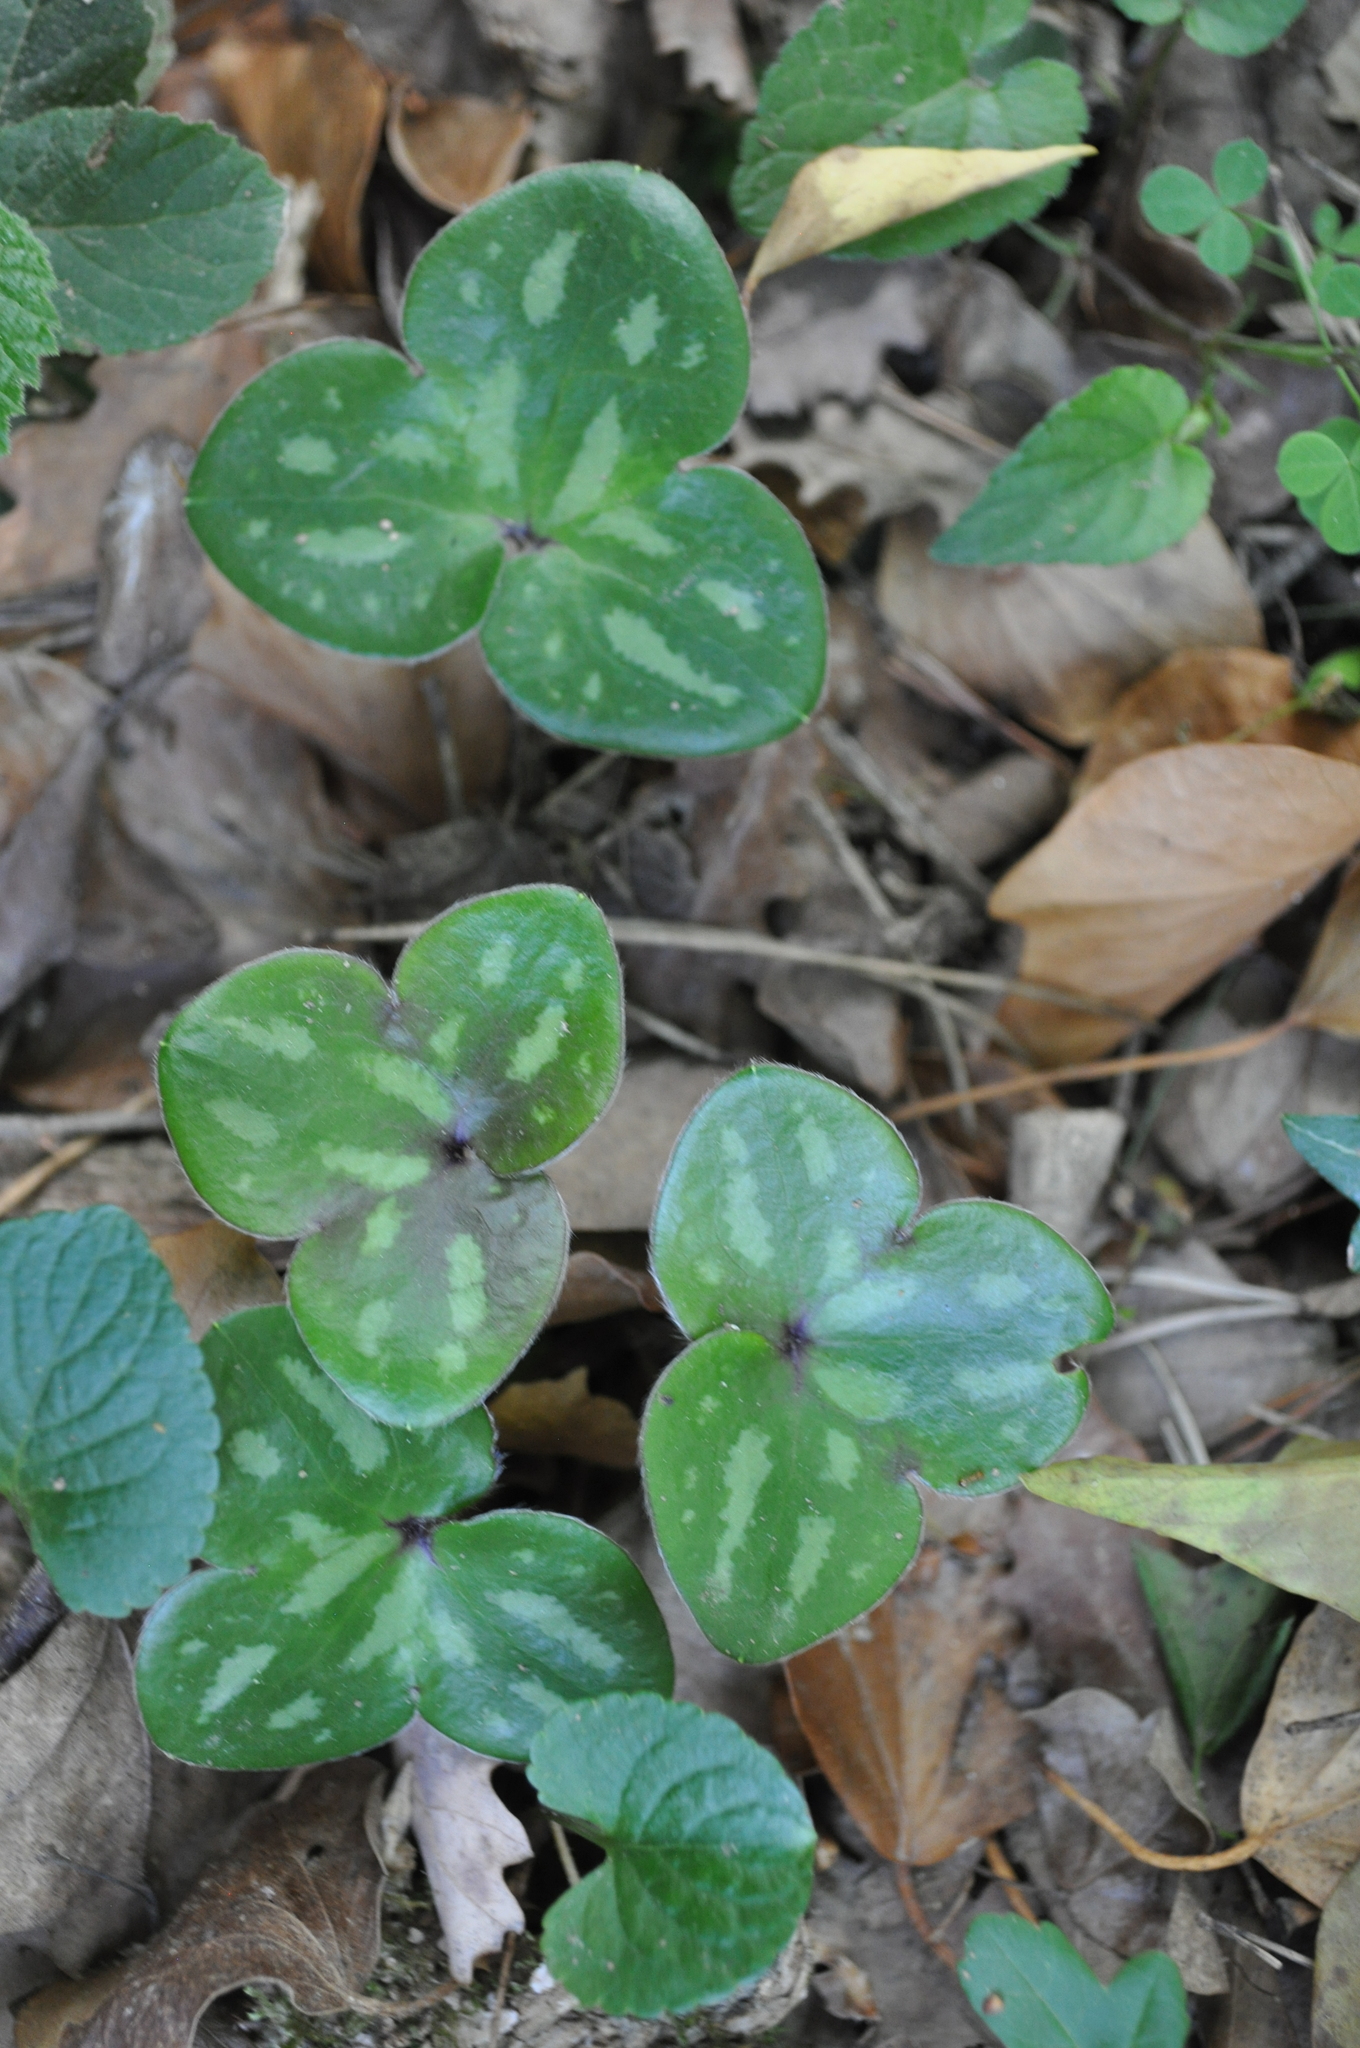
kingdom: Plantae
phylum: Tracheophyta
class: Magnoliopsida
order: Ranunculales
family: Ranunculaceae
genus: Hepatica
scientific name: Hepatica nobilis
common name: Liverleaf
